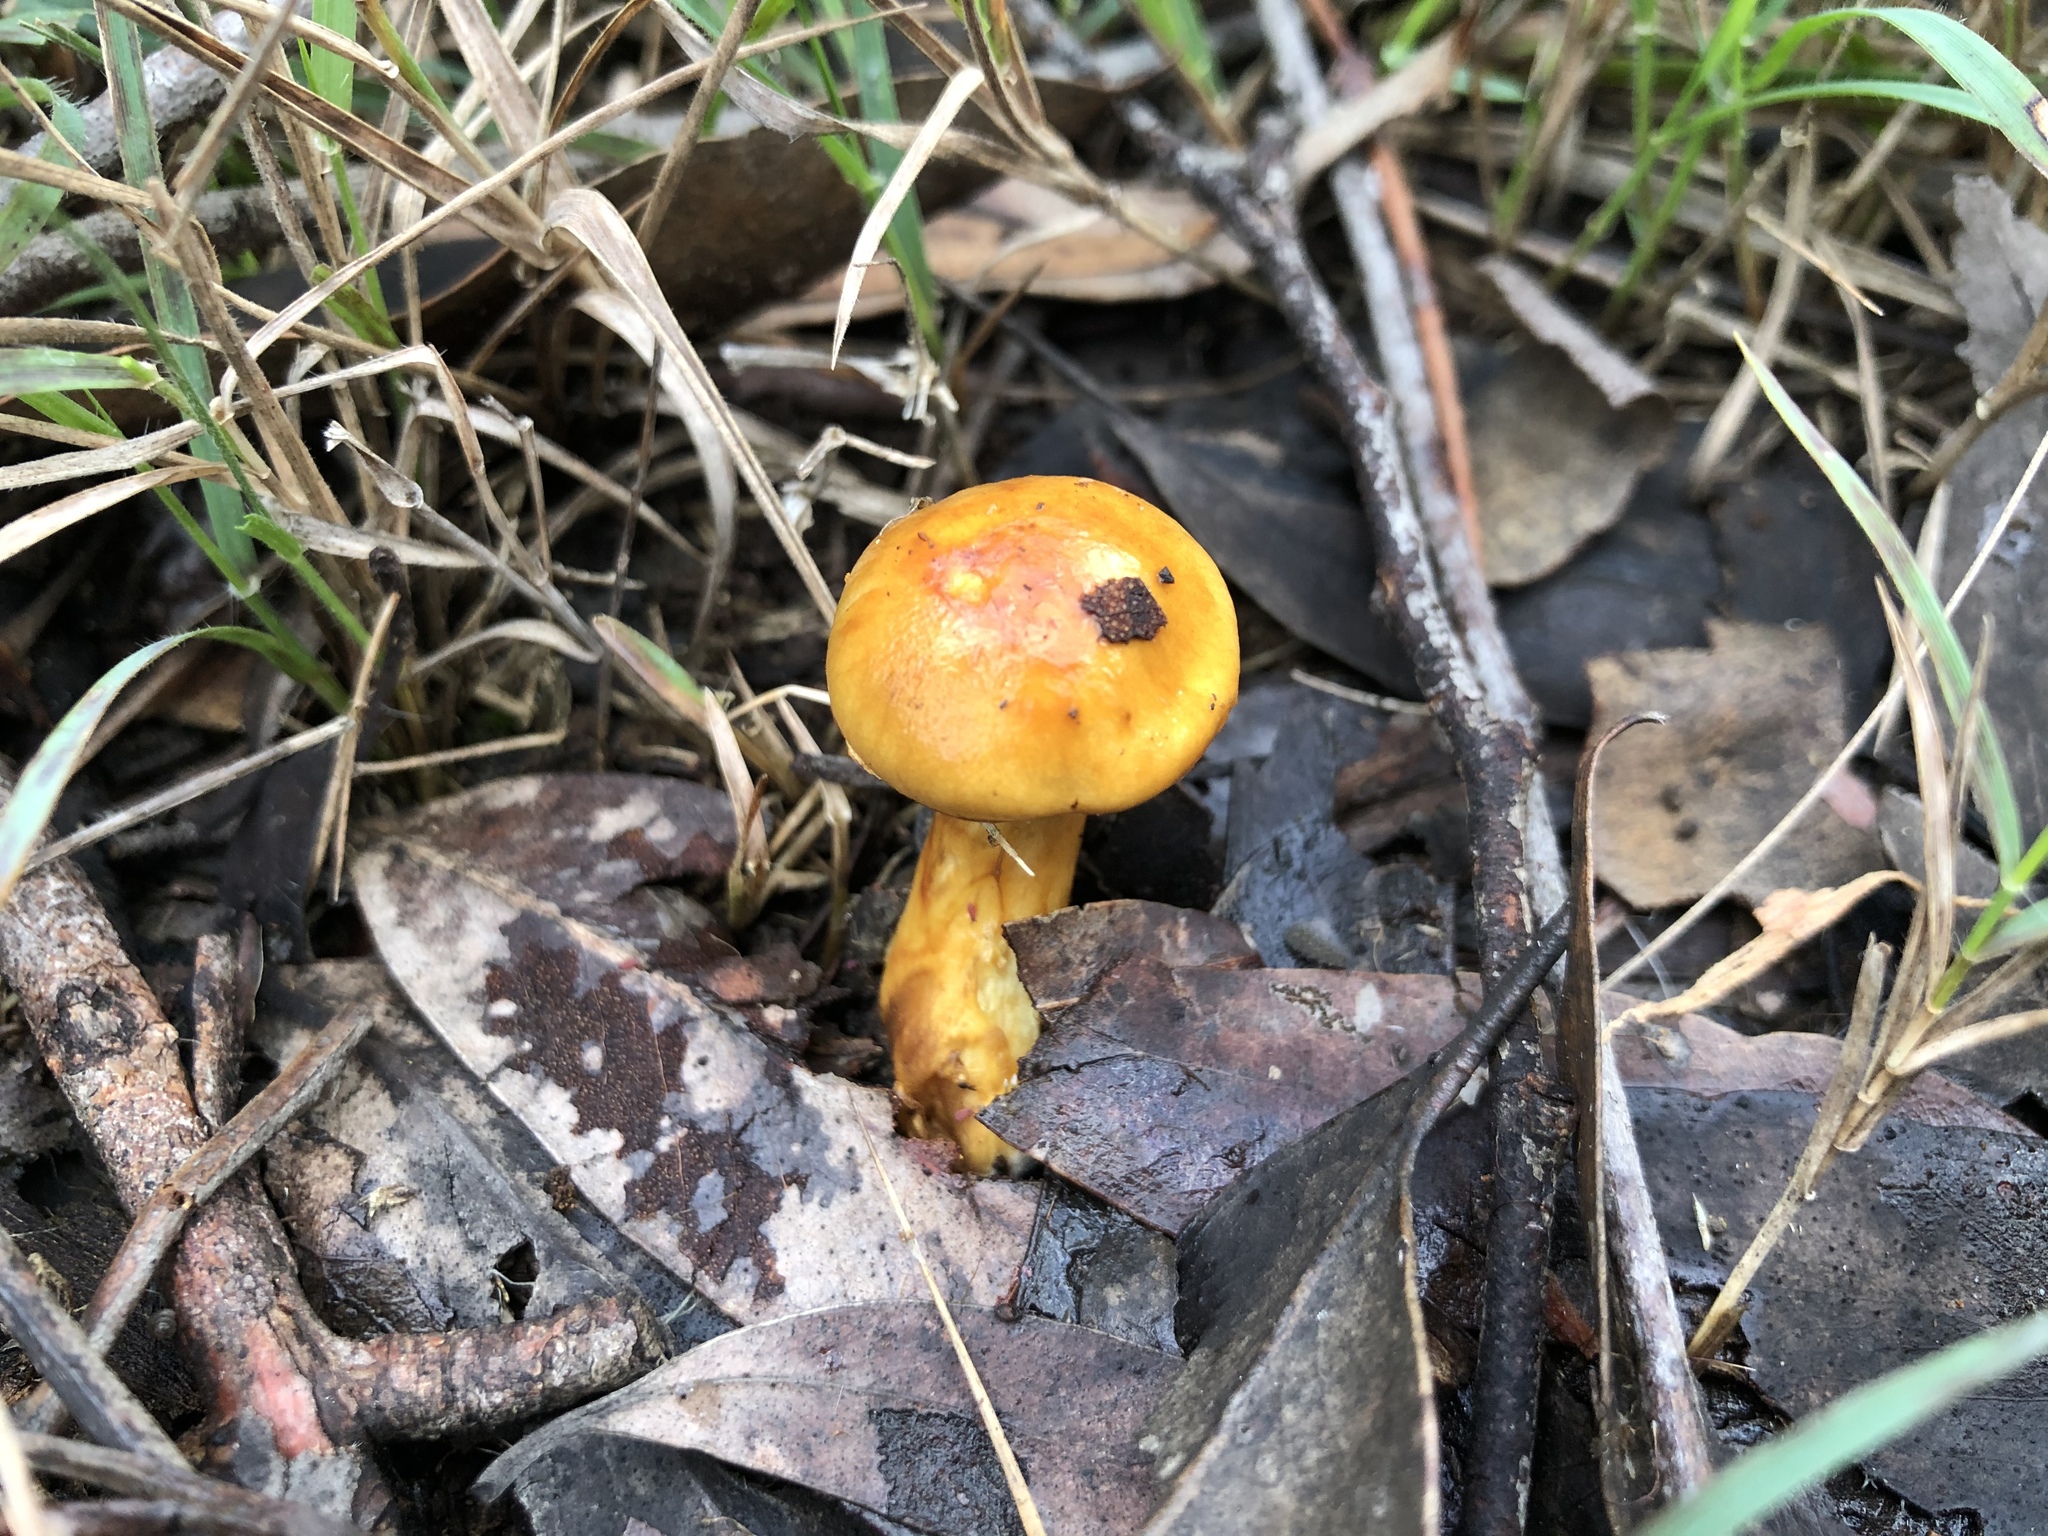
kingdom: Fungi
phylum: Basidiomycota
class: Agaricomycetes
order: Agaricales
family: Cortinariaceae
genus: Cortinarius
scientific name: Cortinarius sinapicolor
